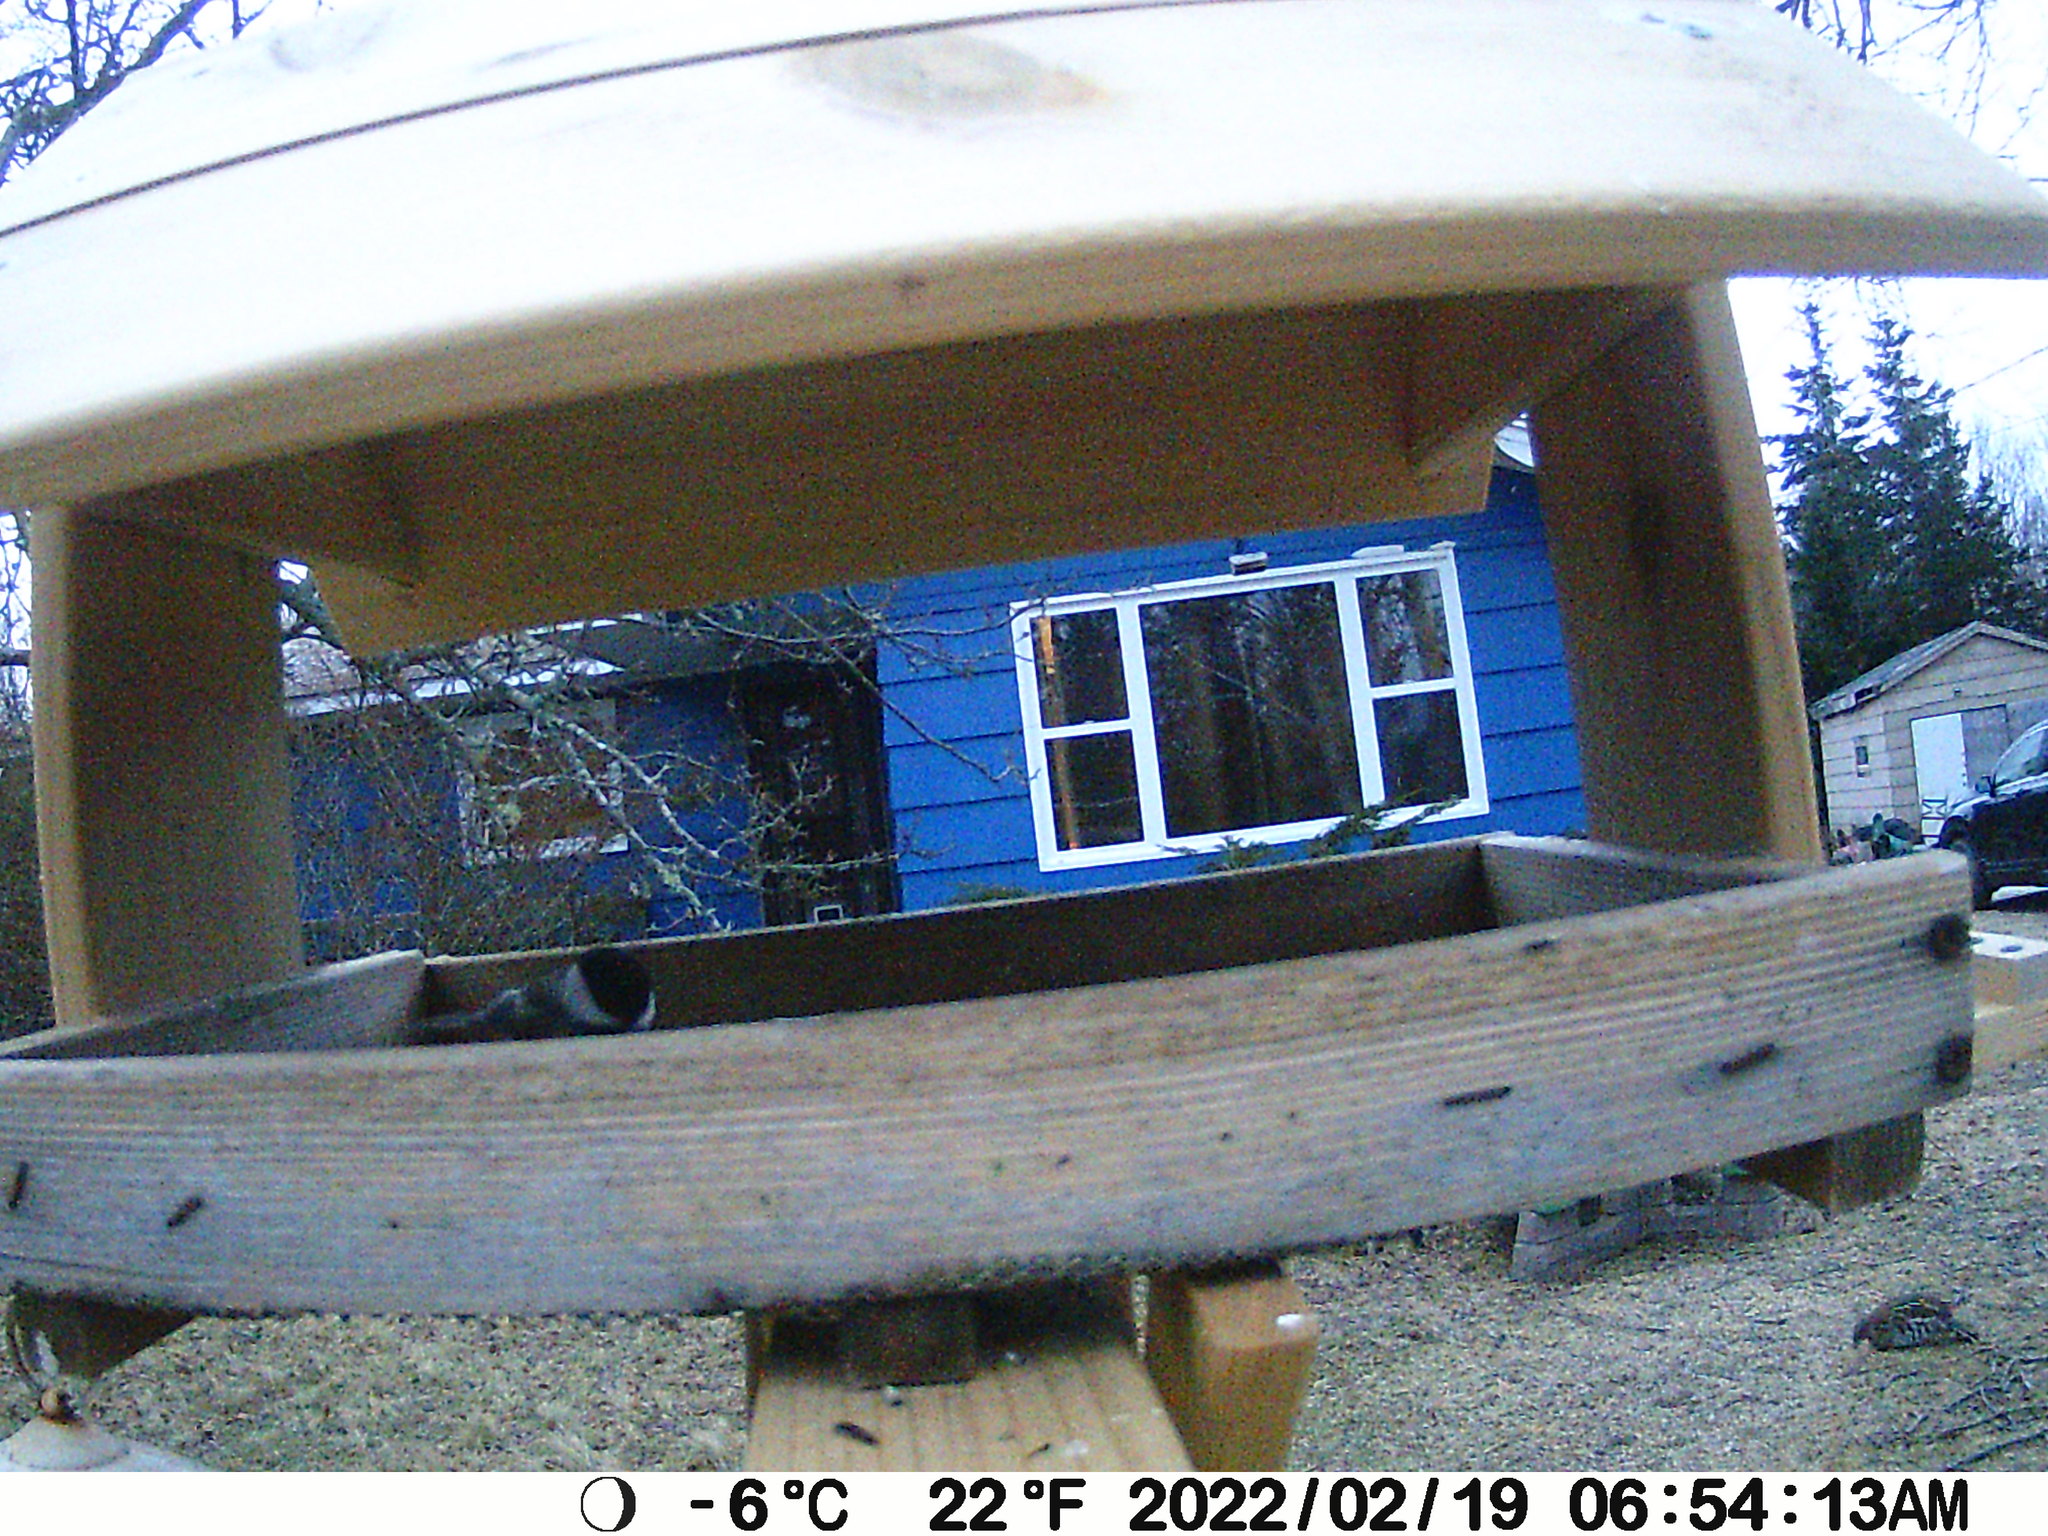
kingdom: Animalia
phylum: Chordata
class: Aves
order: Galliformes
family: Phasianidae
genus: Bonasa
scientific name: Bonasa umbellus
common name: Ruffed grouse
